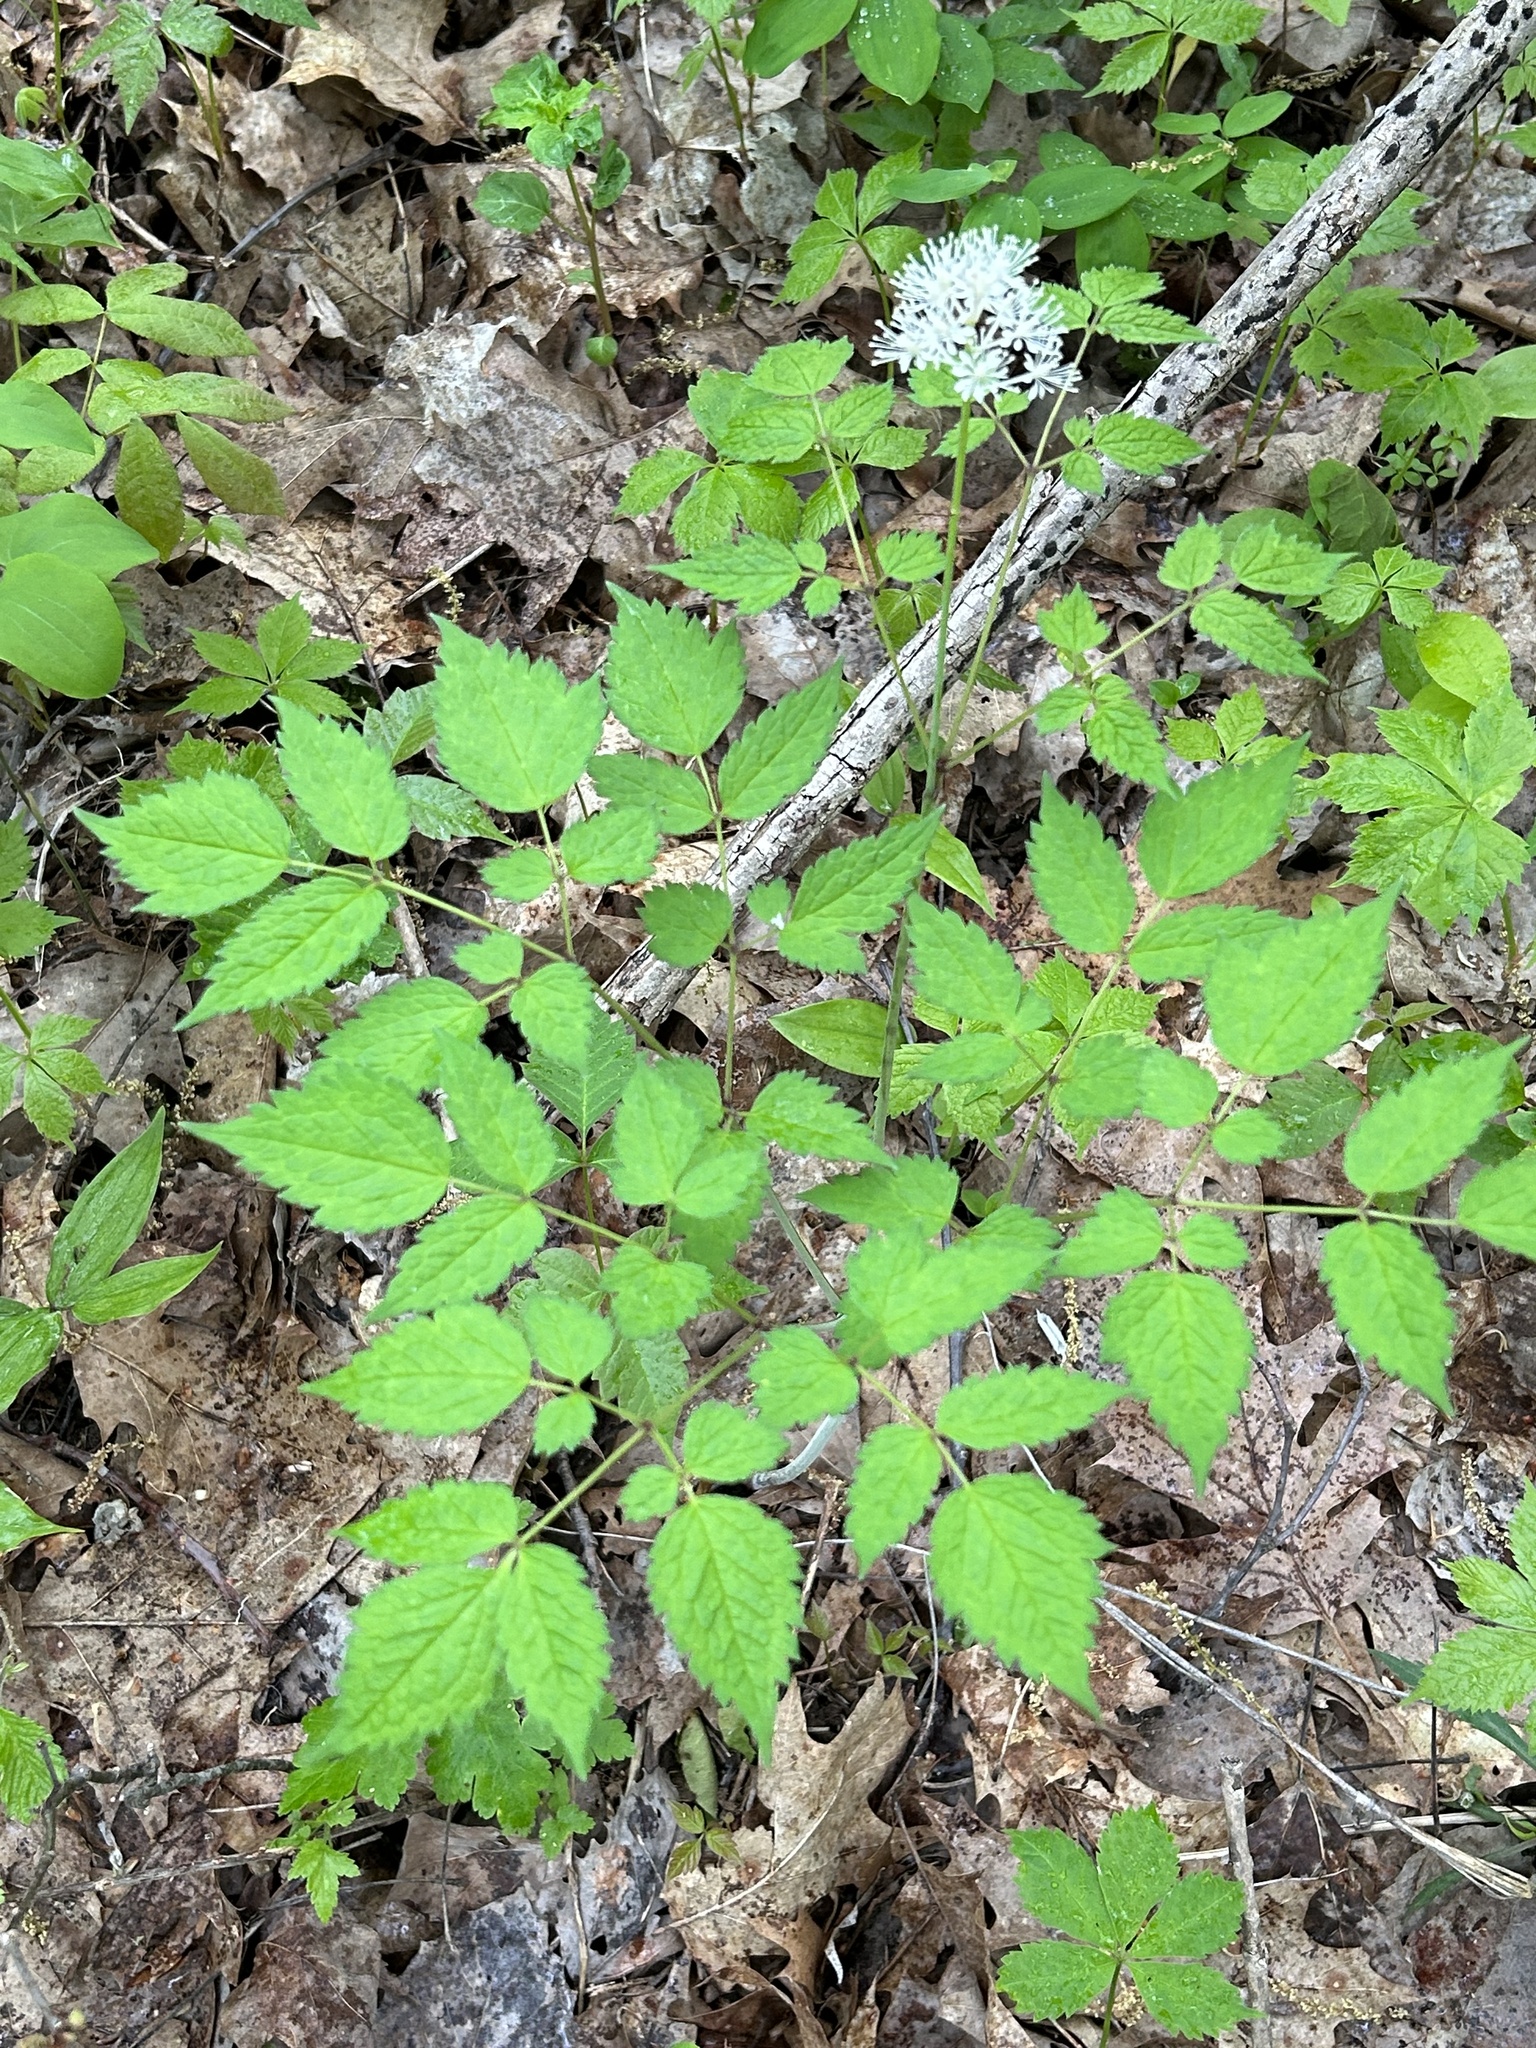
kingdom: Plantae
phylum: Tracheophyta
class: Magnoliopsida
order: Ranunculales
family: Ranunculaceae
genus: Actaea
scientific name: Actaea rubra
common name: Red baneberry
